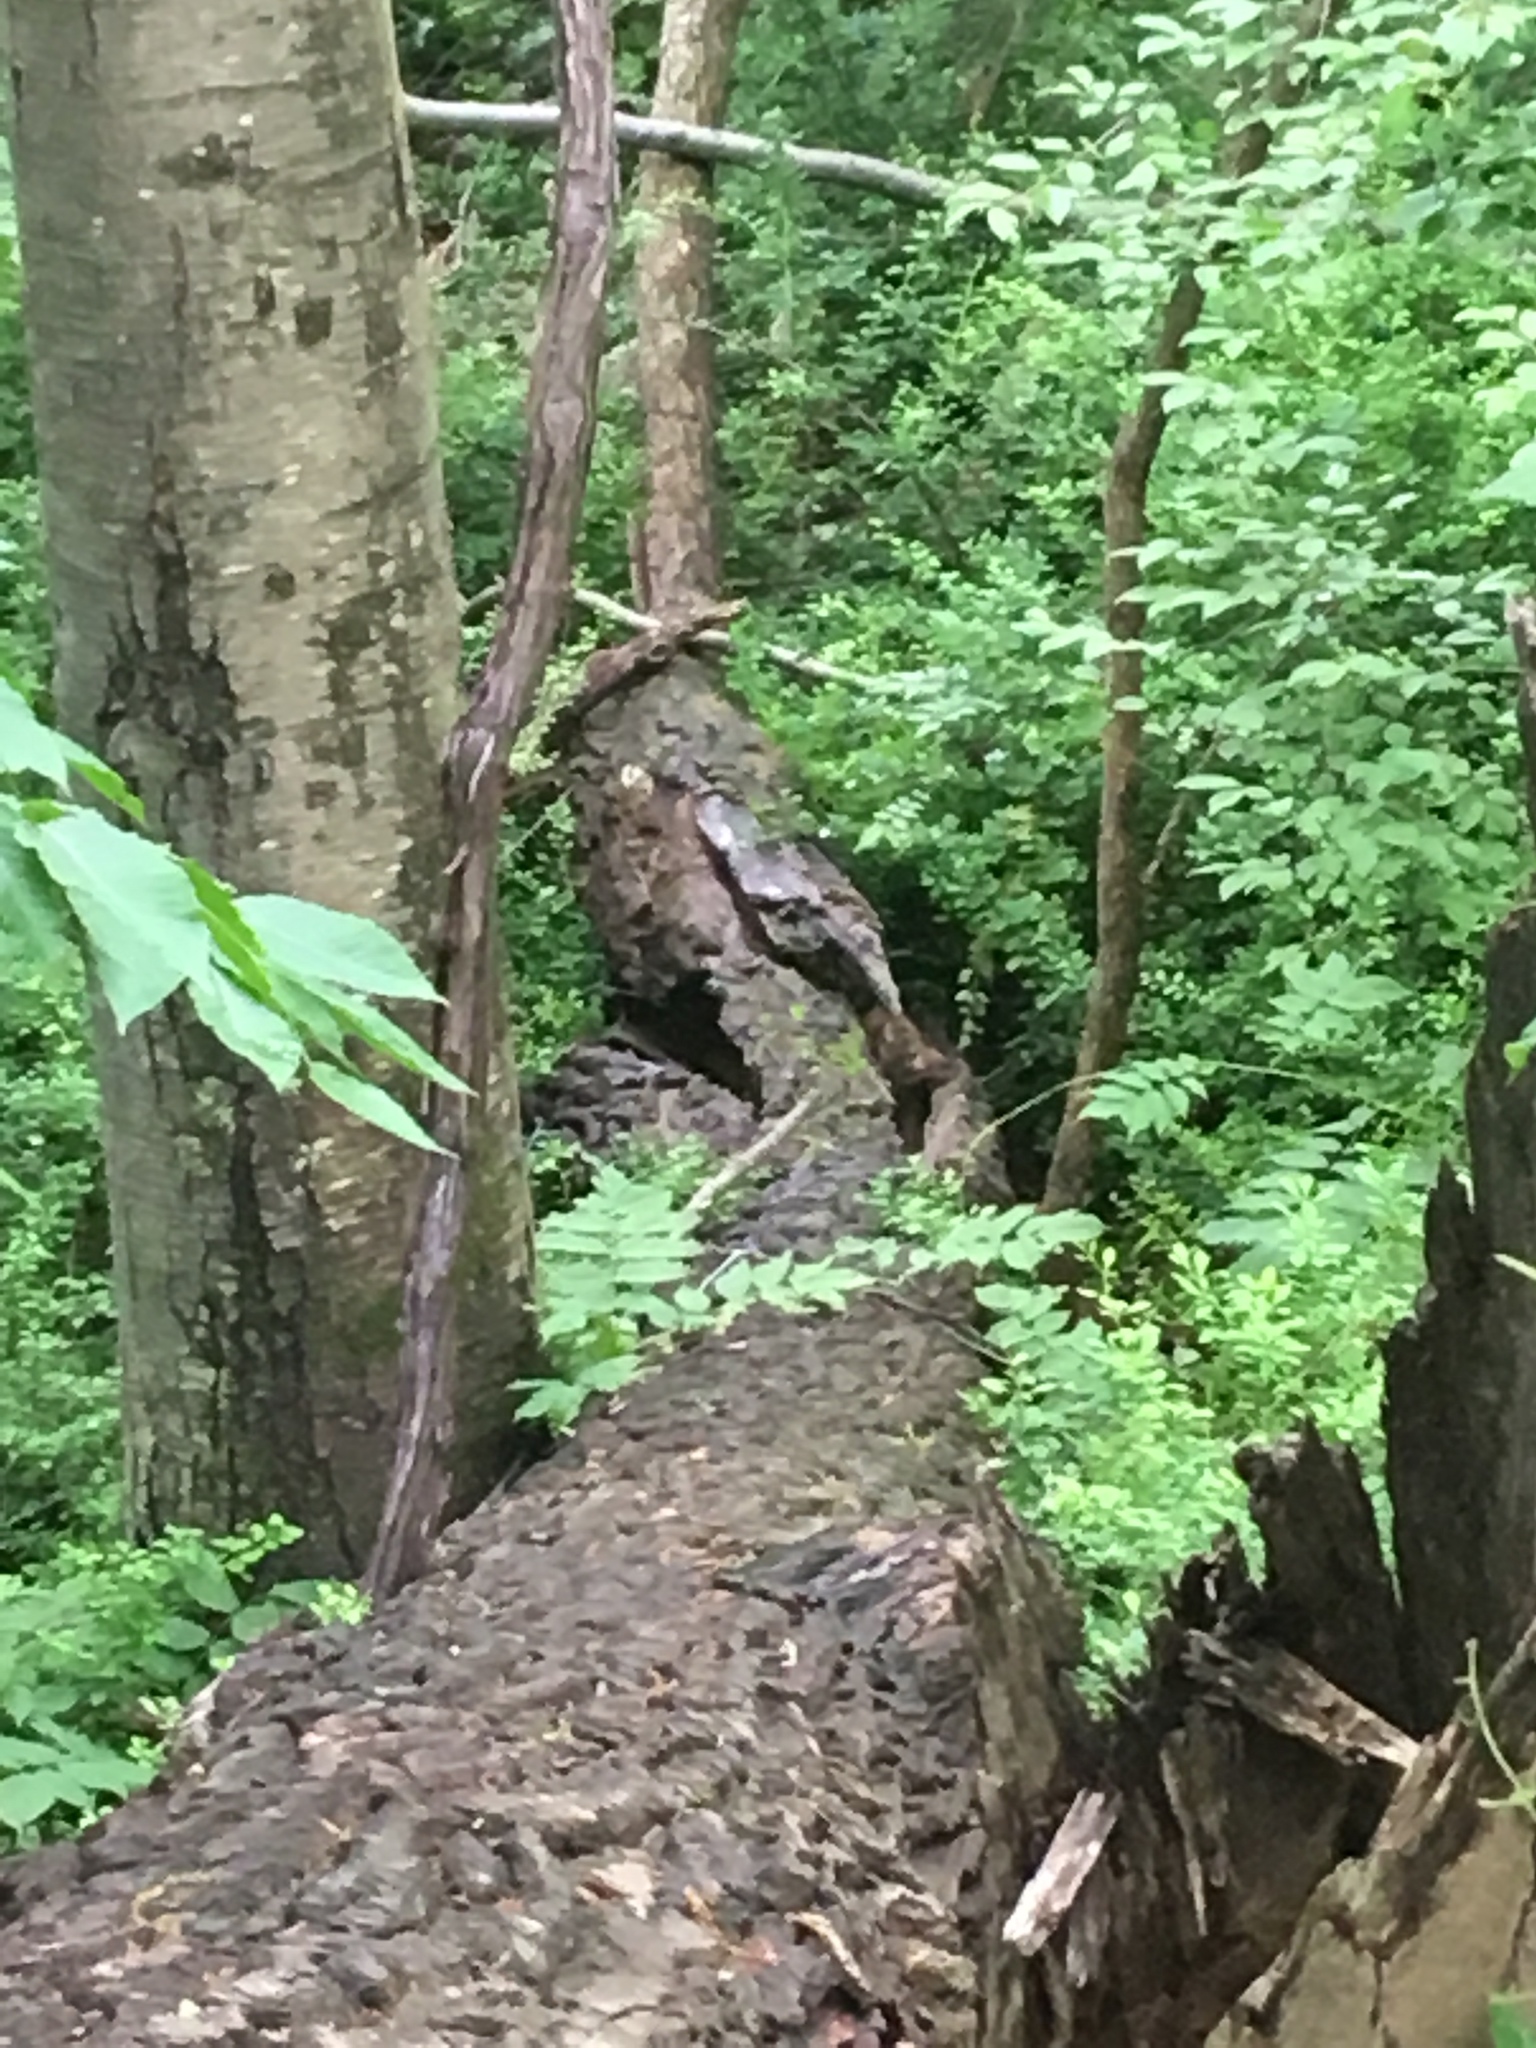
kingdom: Animalia
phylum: Chordata
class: Mammalia
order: Carnivora
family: Canidae
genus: Canis
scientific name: Canis latrans
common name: Coyote
